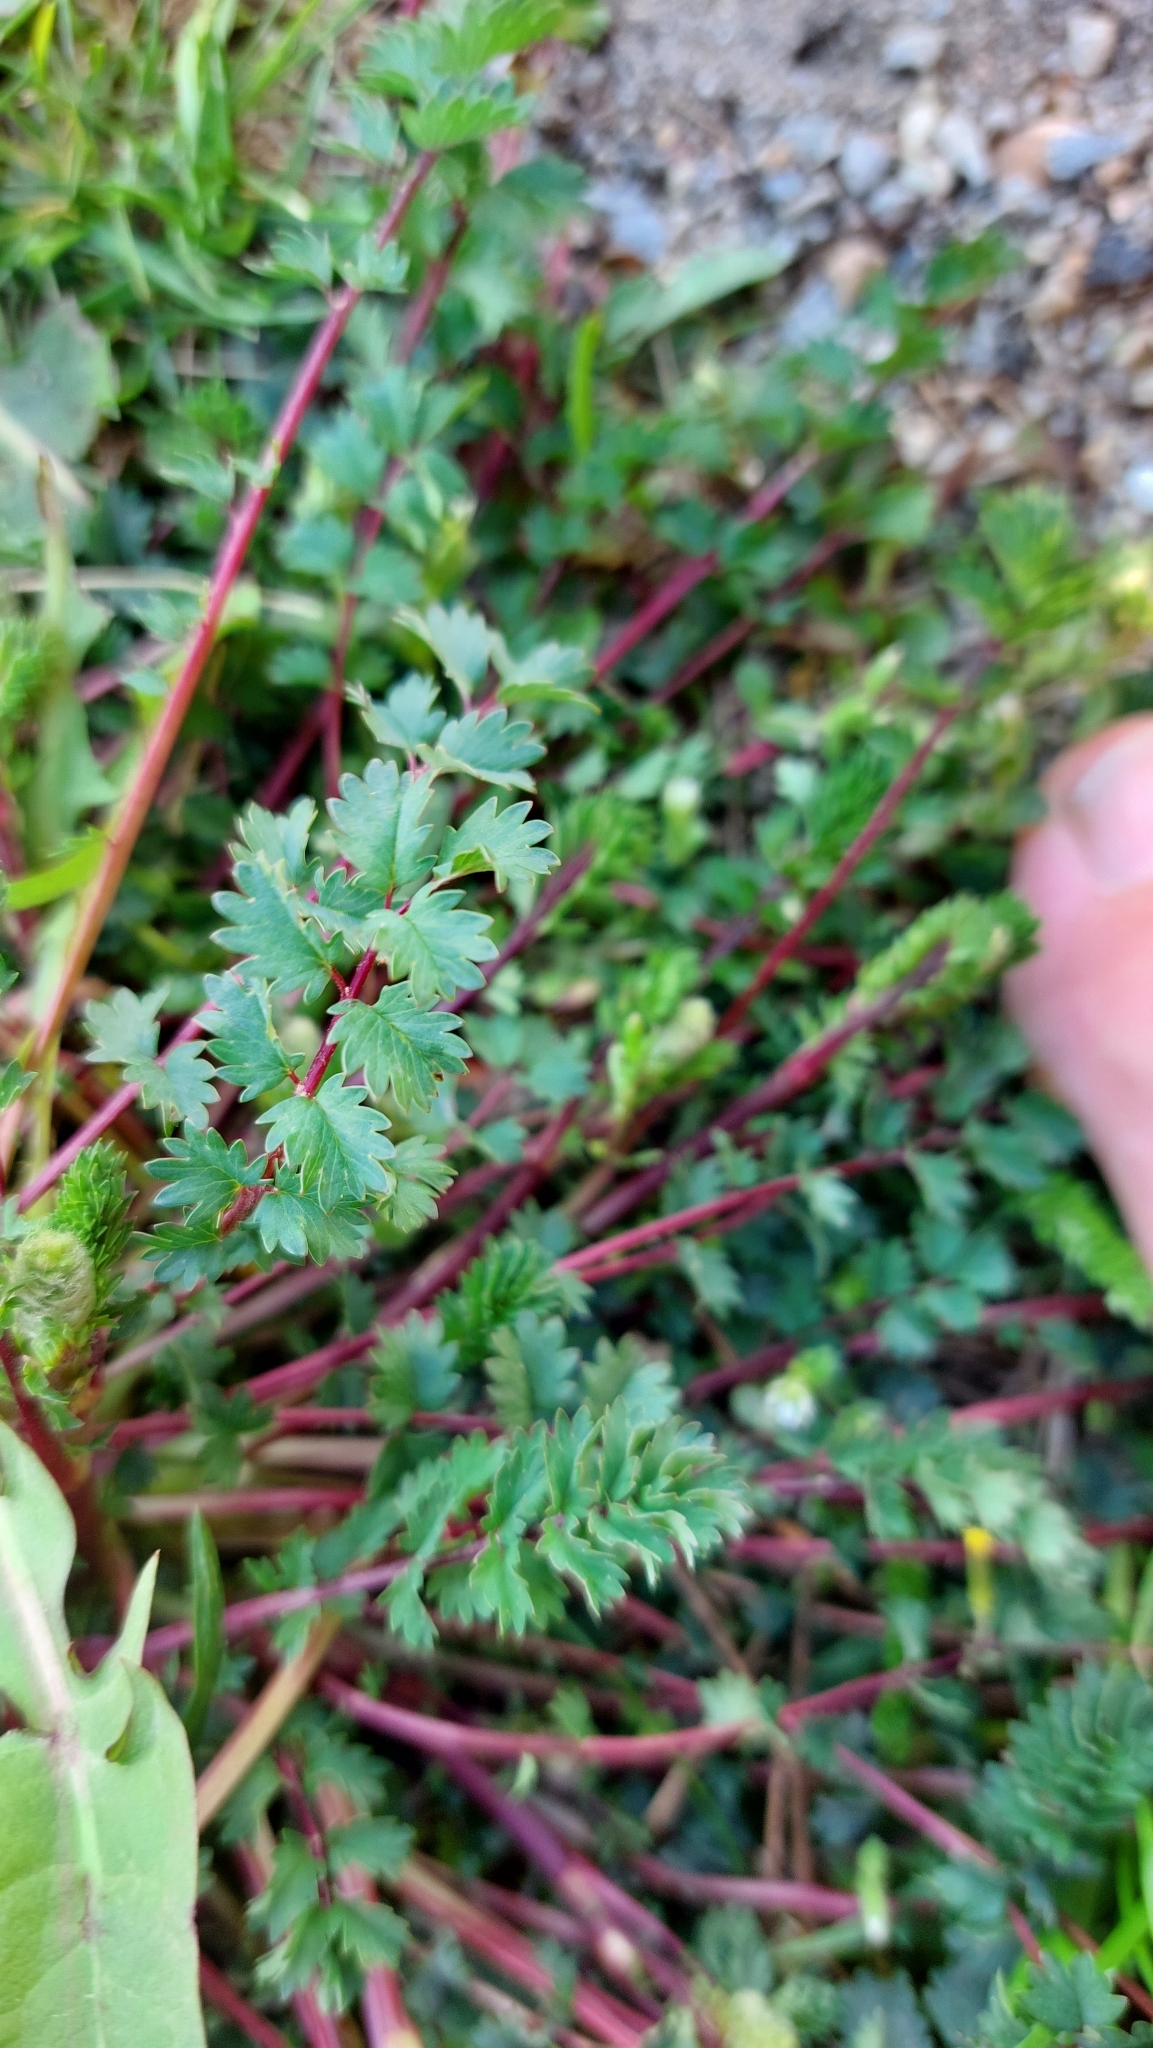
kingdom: Plantae
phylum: Tracheophyta
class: Magnoliopsida
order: Rosales
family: Rosaceae
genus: Poterium
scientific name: Poterium sanguisorba
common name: Salad burnet
